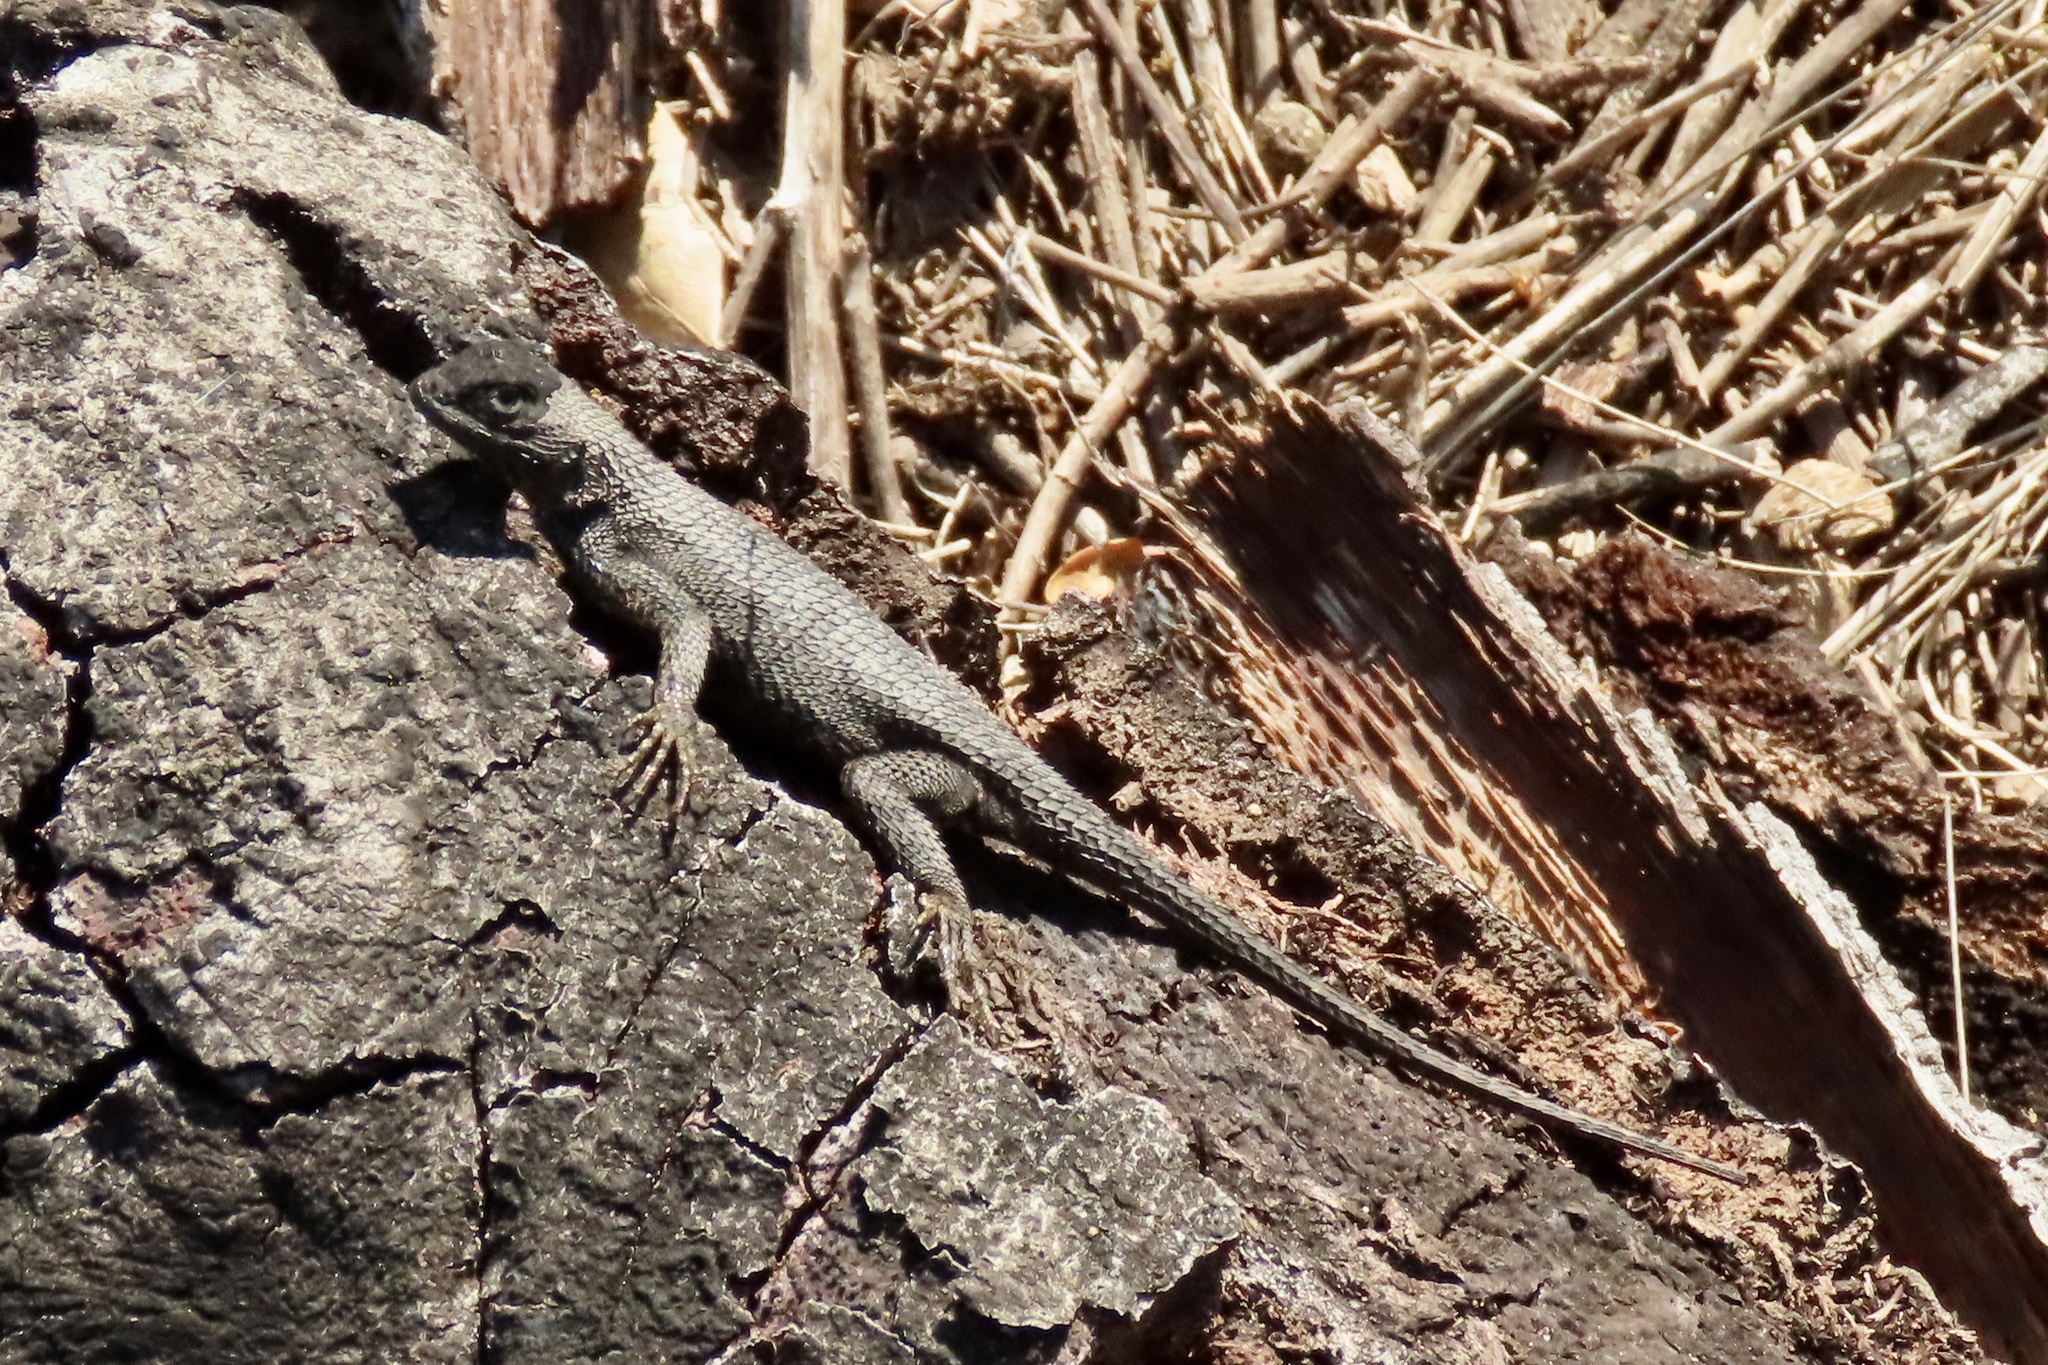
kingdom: Animalia
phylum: Chordata
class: Squamata
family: Phrynosomatidae
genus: Sceloporus
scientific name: Sceloporus occidentalis
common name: Western fence lizard
